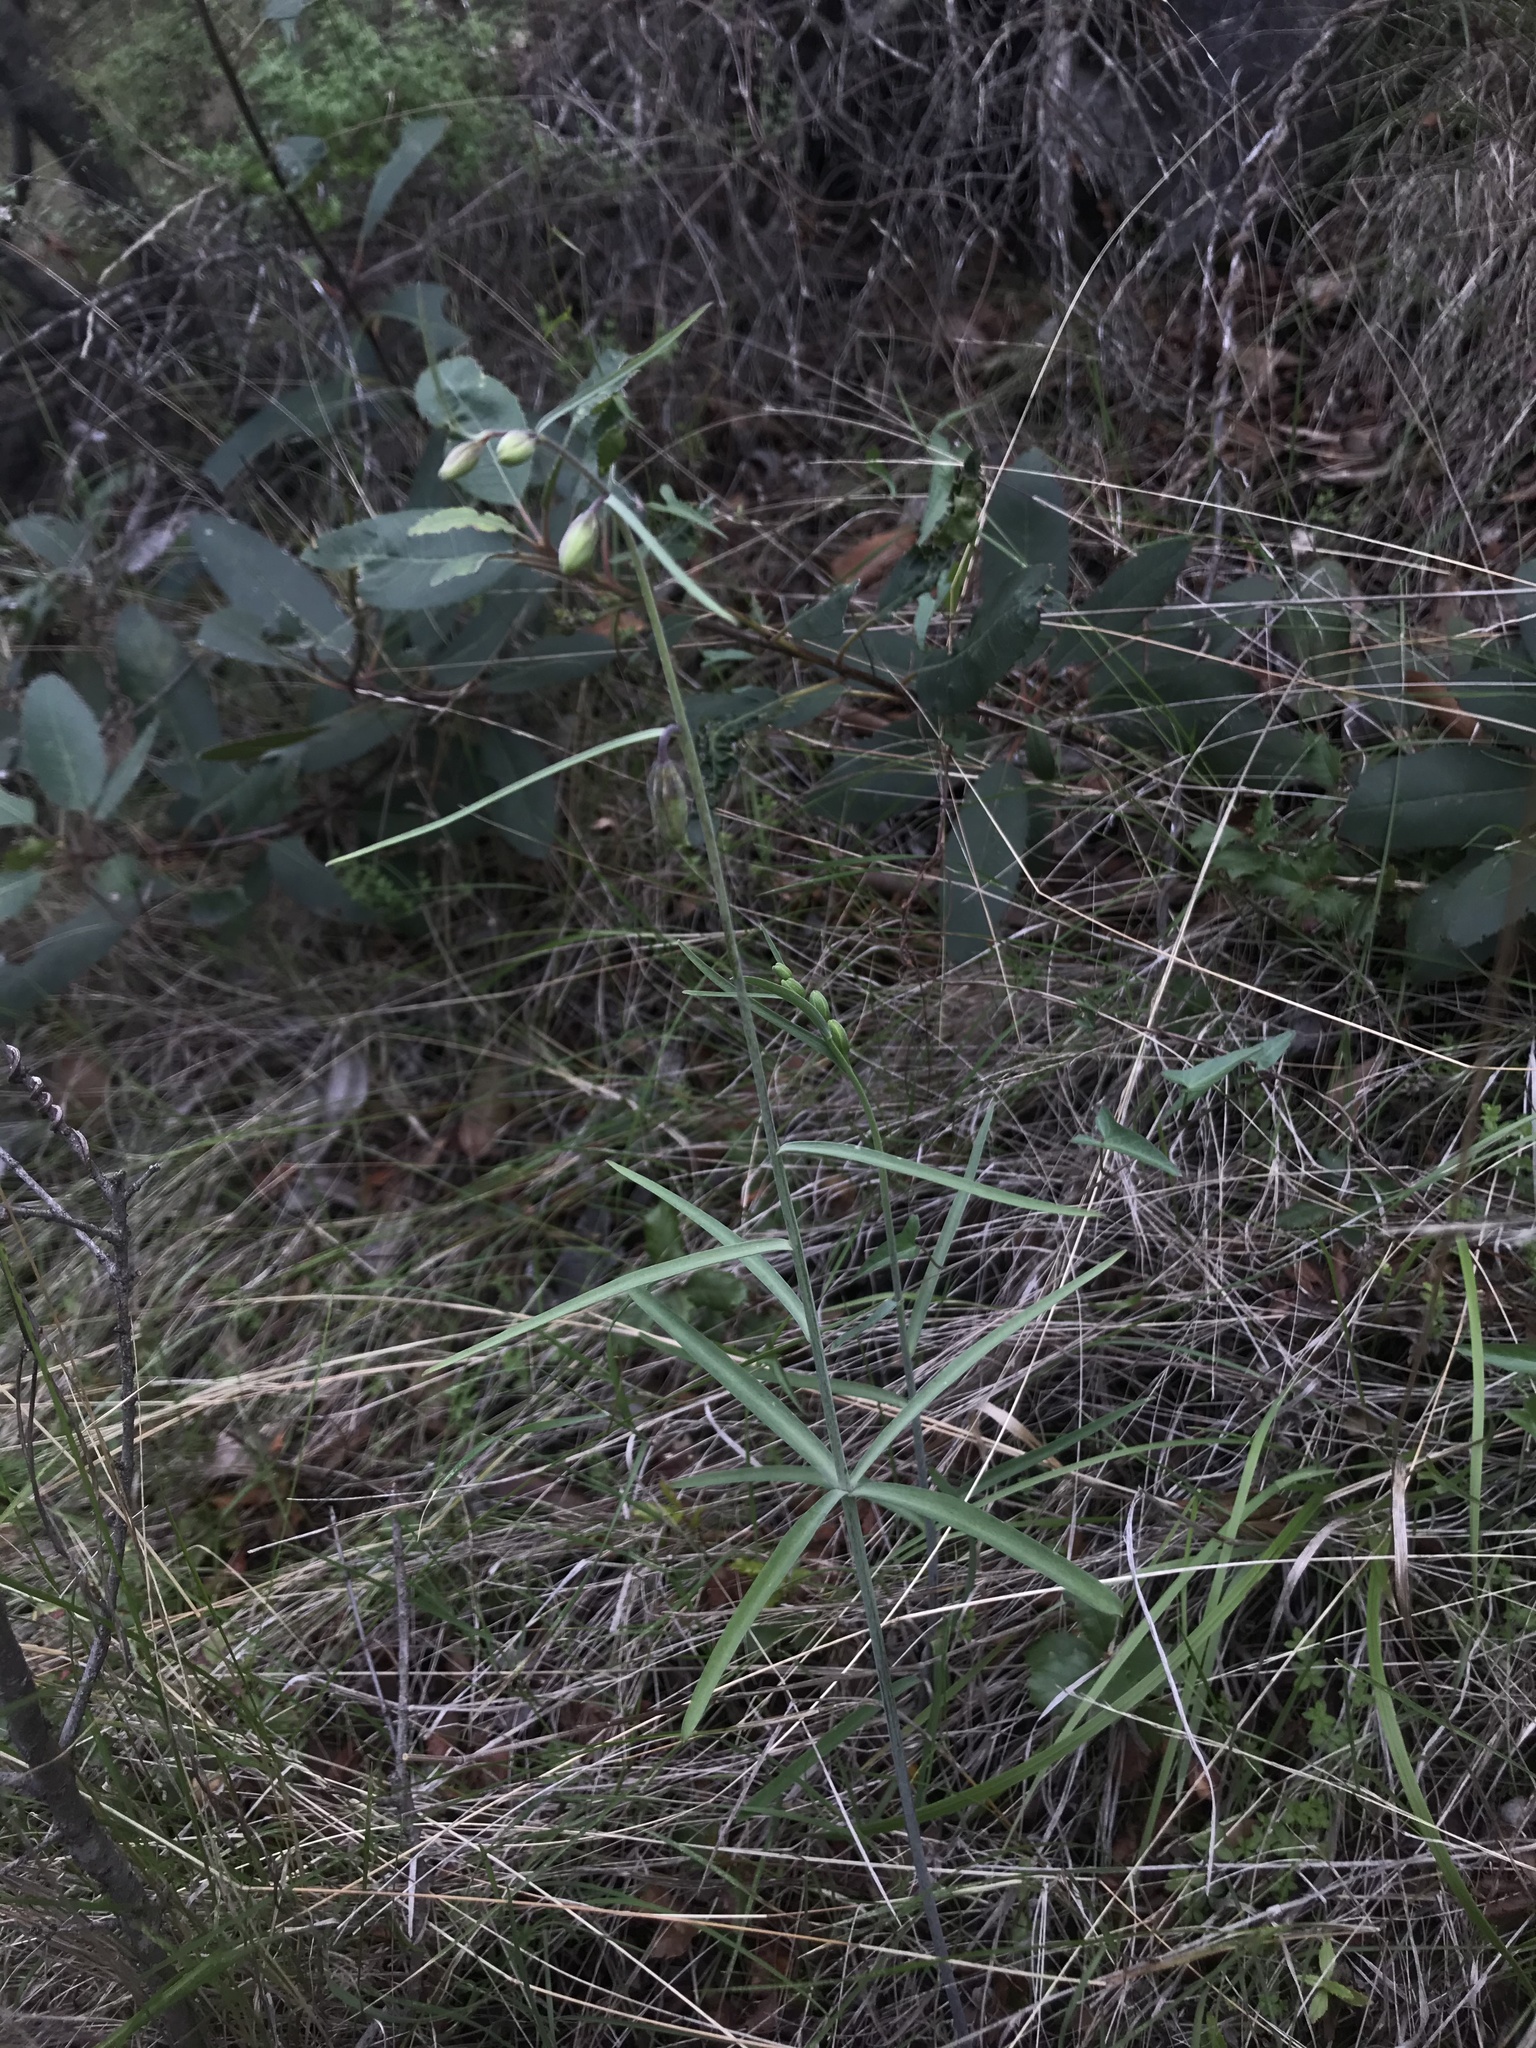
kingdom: Plantae
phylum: Tracheophyta
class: Liliopsida
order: Liliales
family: Liliaceae
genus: Fritillaria
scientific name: Fritillaria ojaiensis
